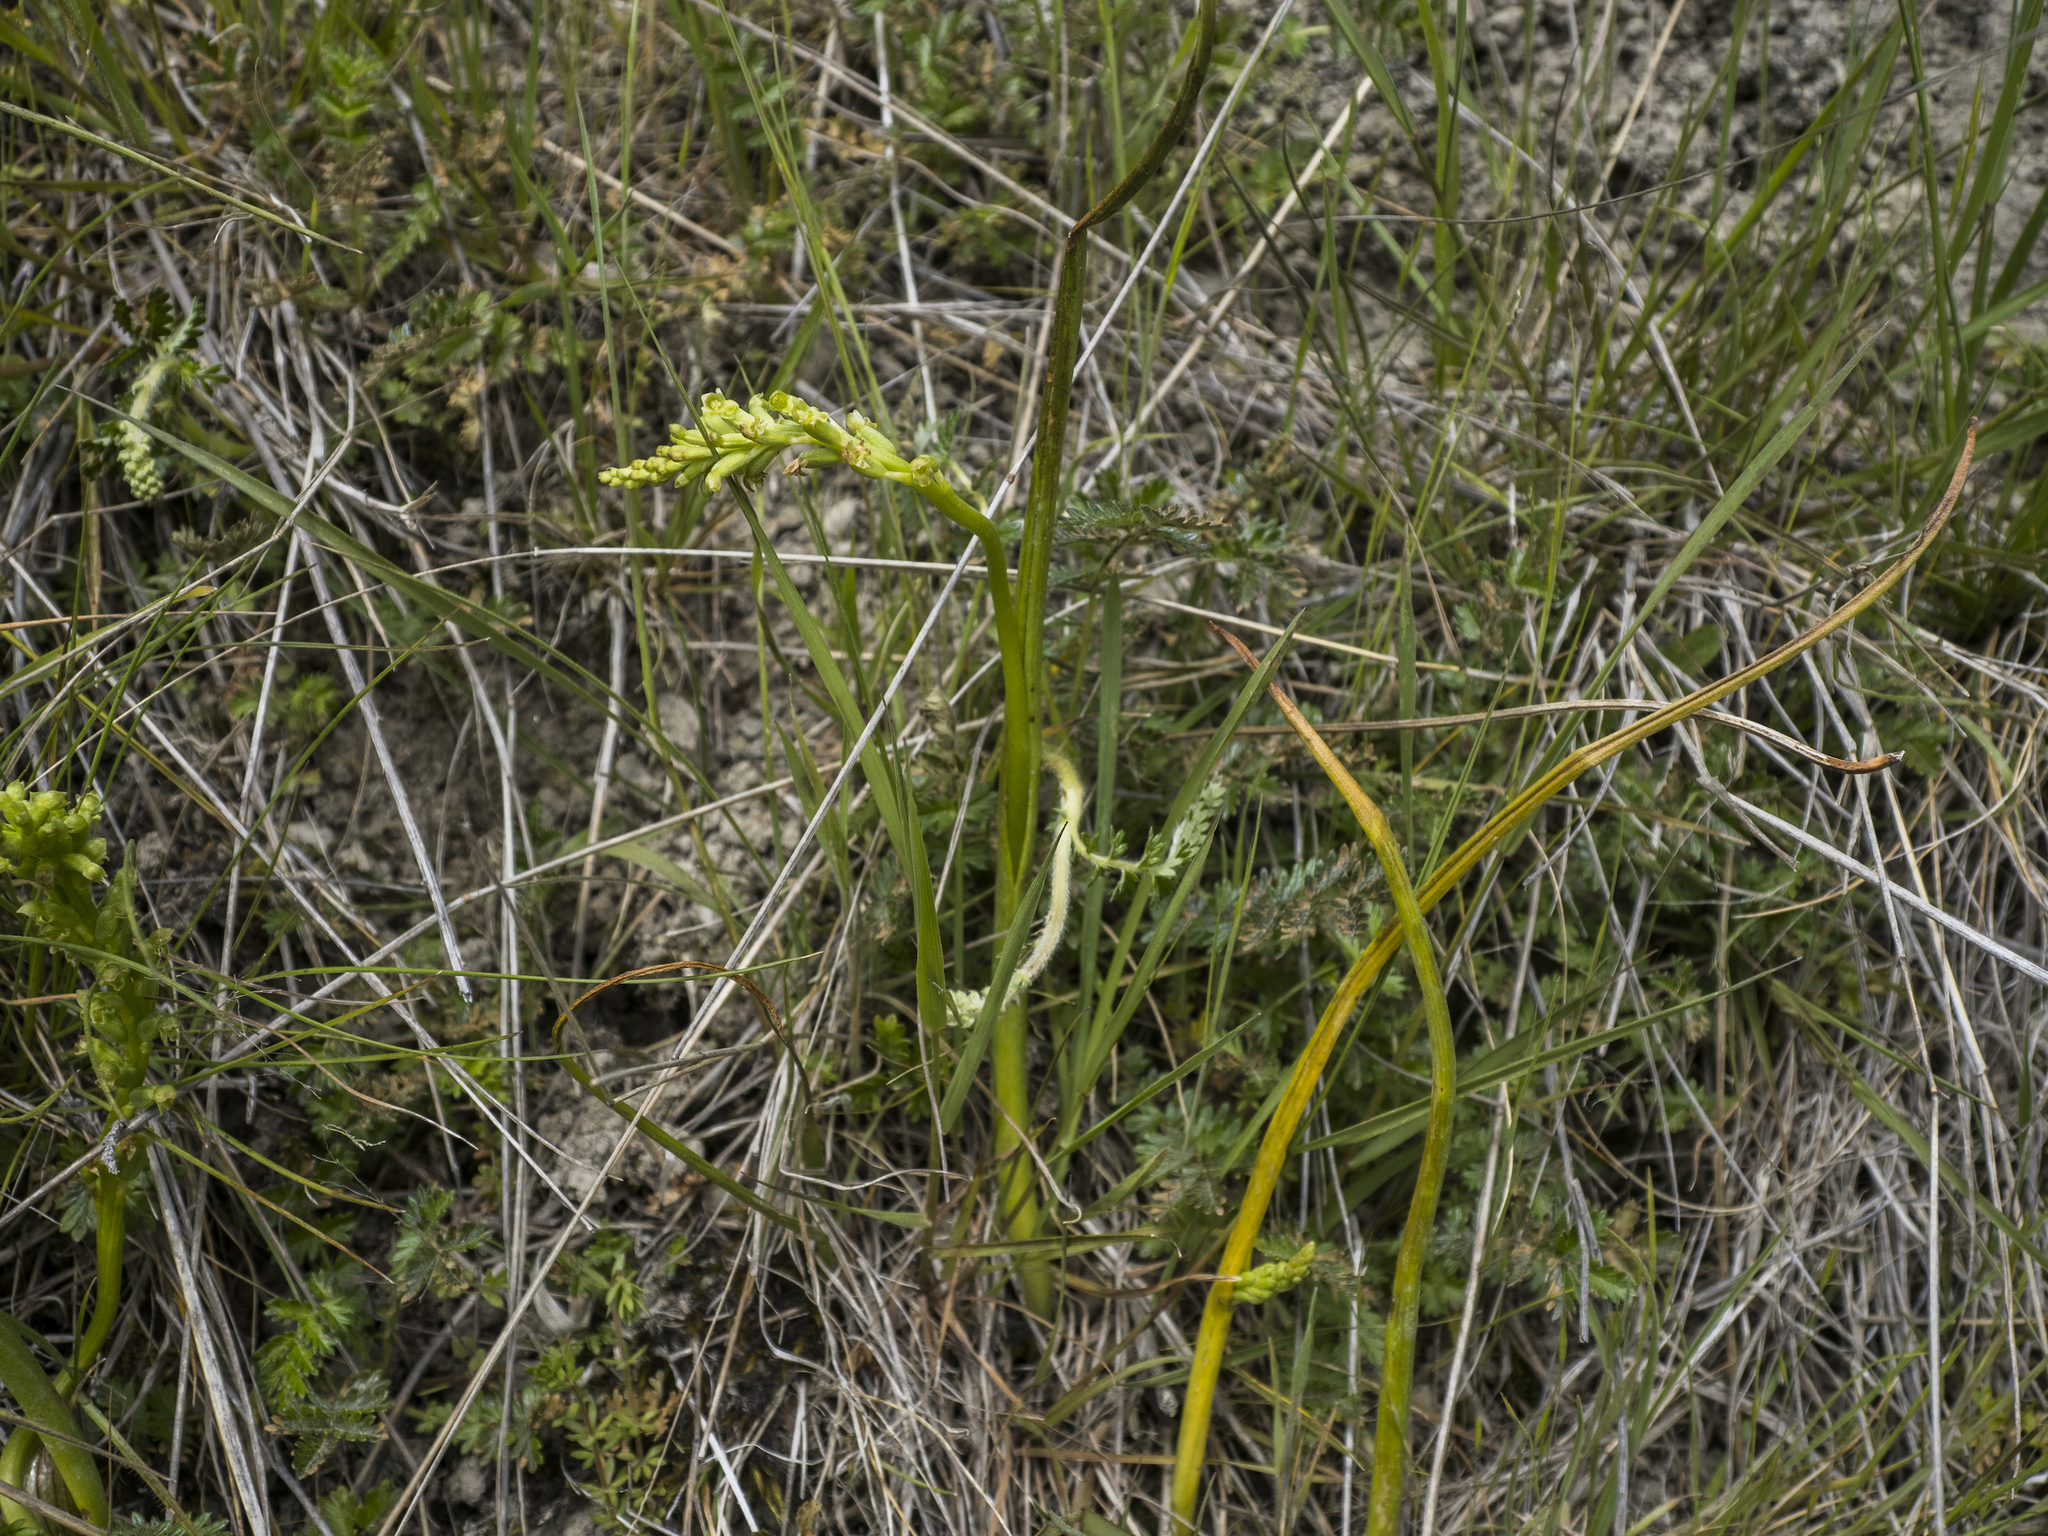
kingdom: Plantae
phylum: Tracheophyta
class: Liliopsida
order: Asparagales
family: Orchidaceae
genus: Microtis
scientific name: Microtis unifolia
